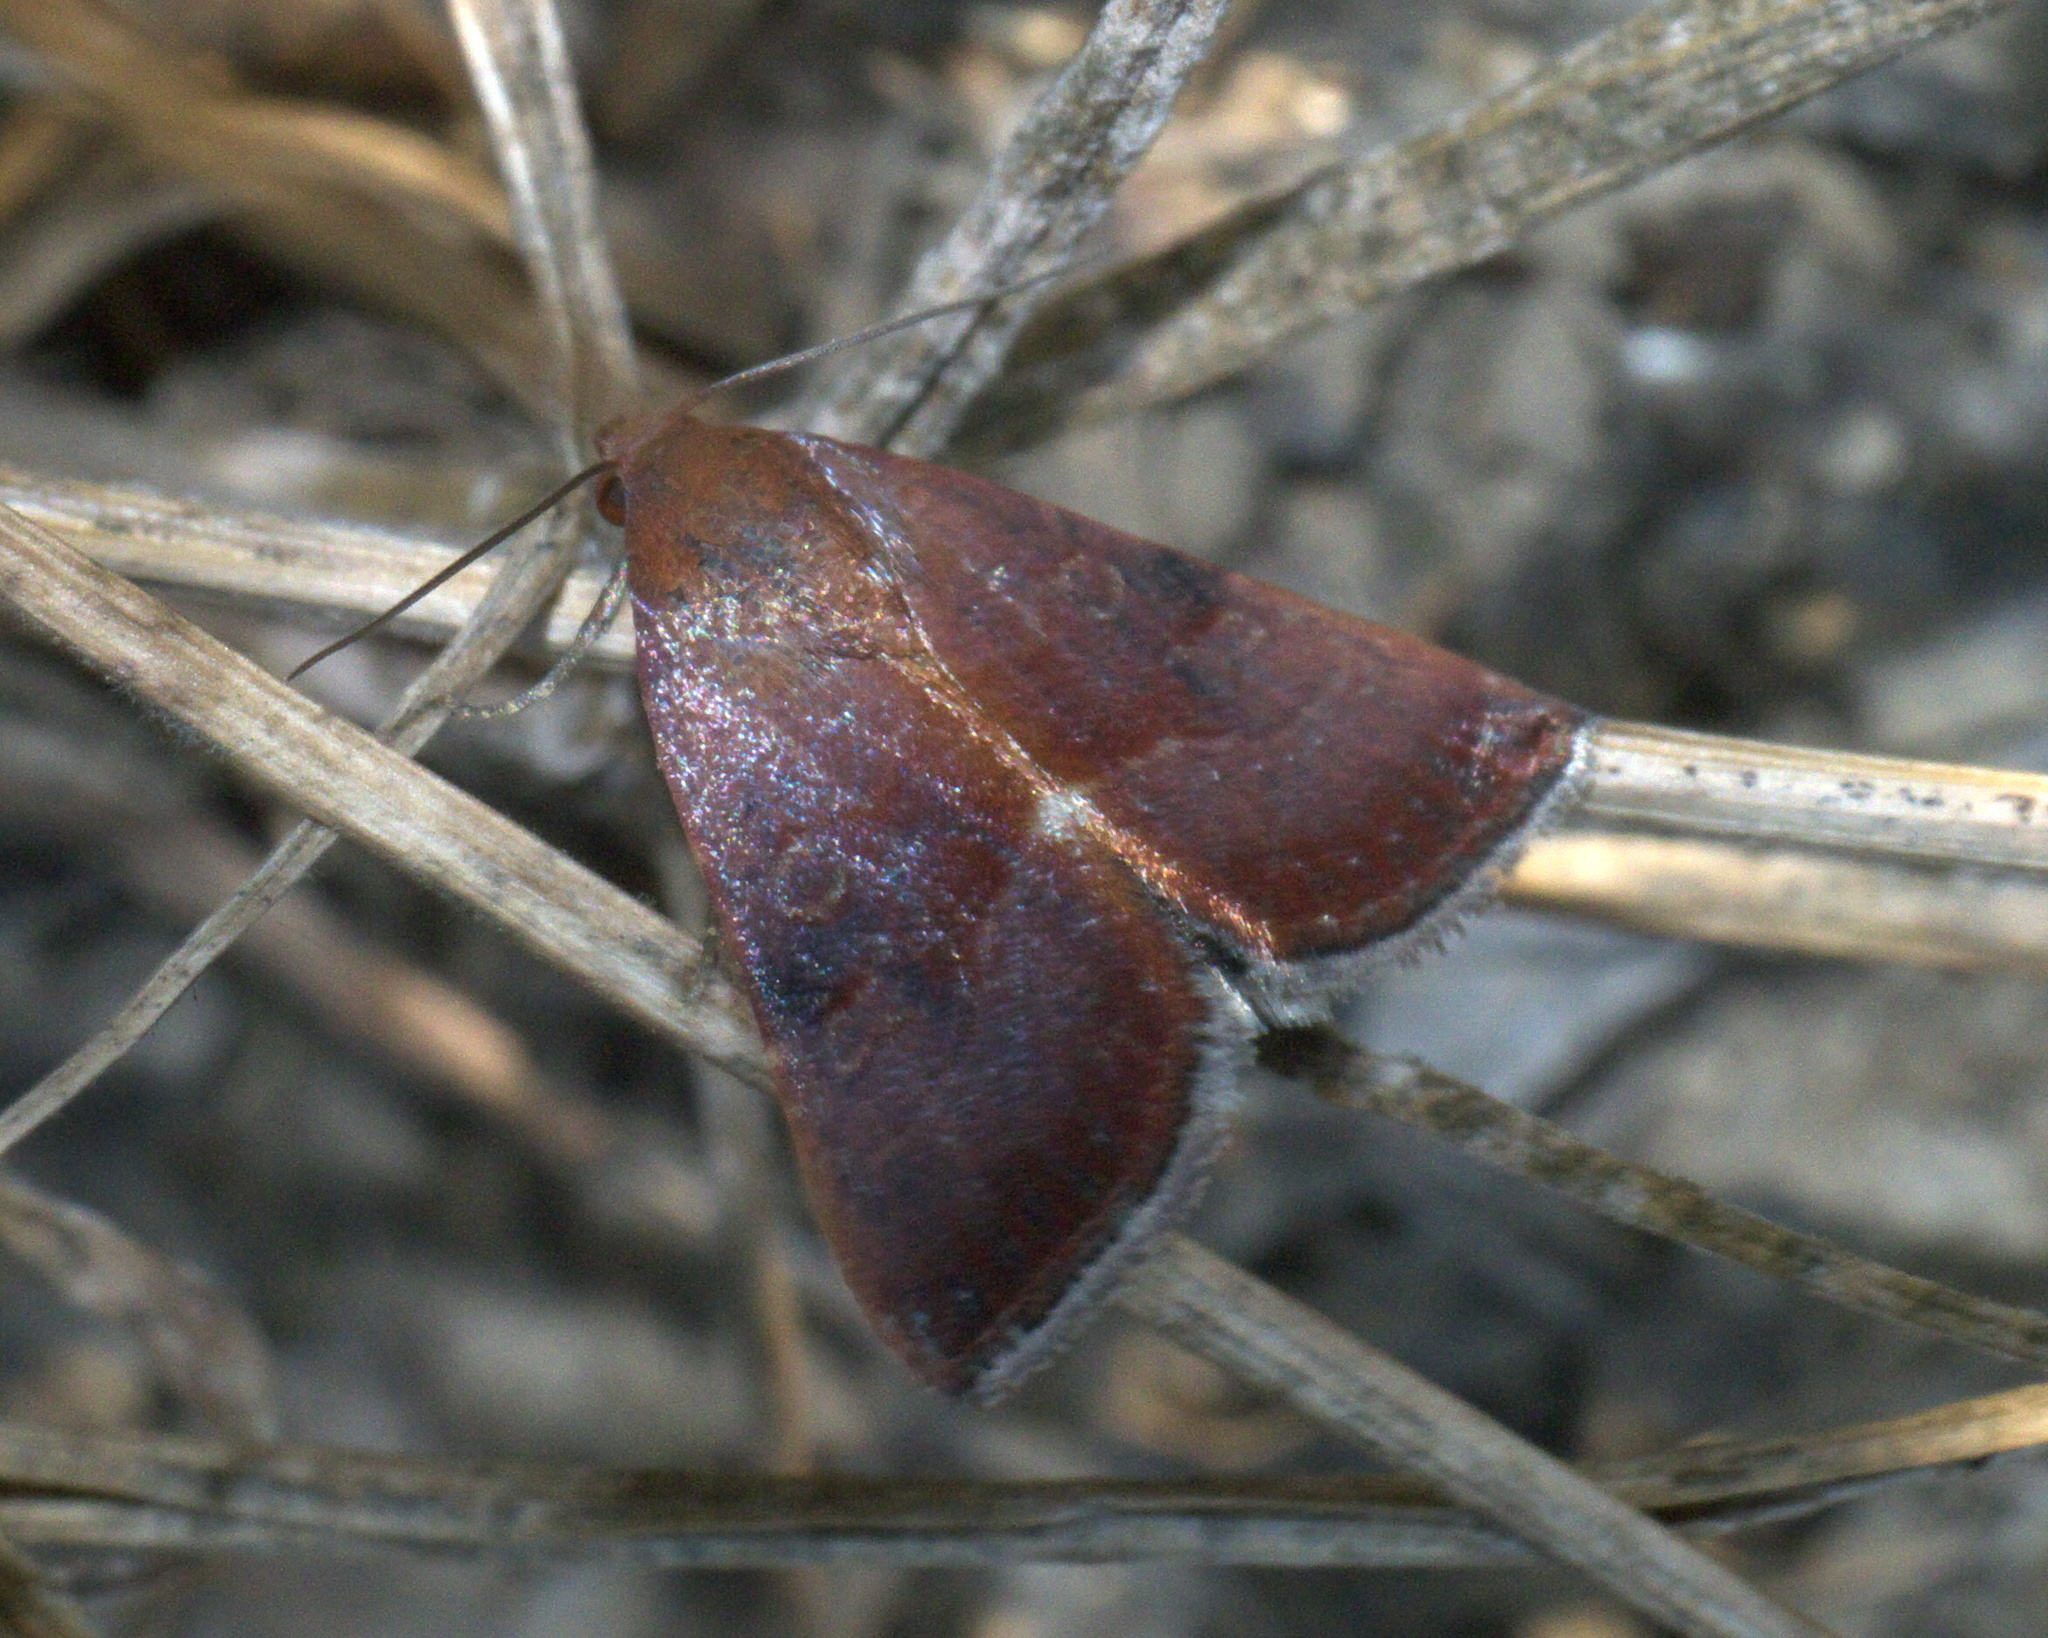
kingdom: Animalia
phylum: Arthropoda
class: Insecta
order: Lepidoptera
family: Noctuidae
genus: Galgula
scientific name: Galgula partita
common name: Wedgeling
